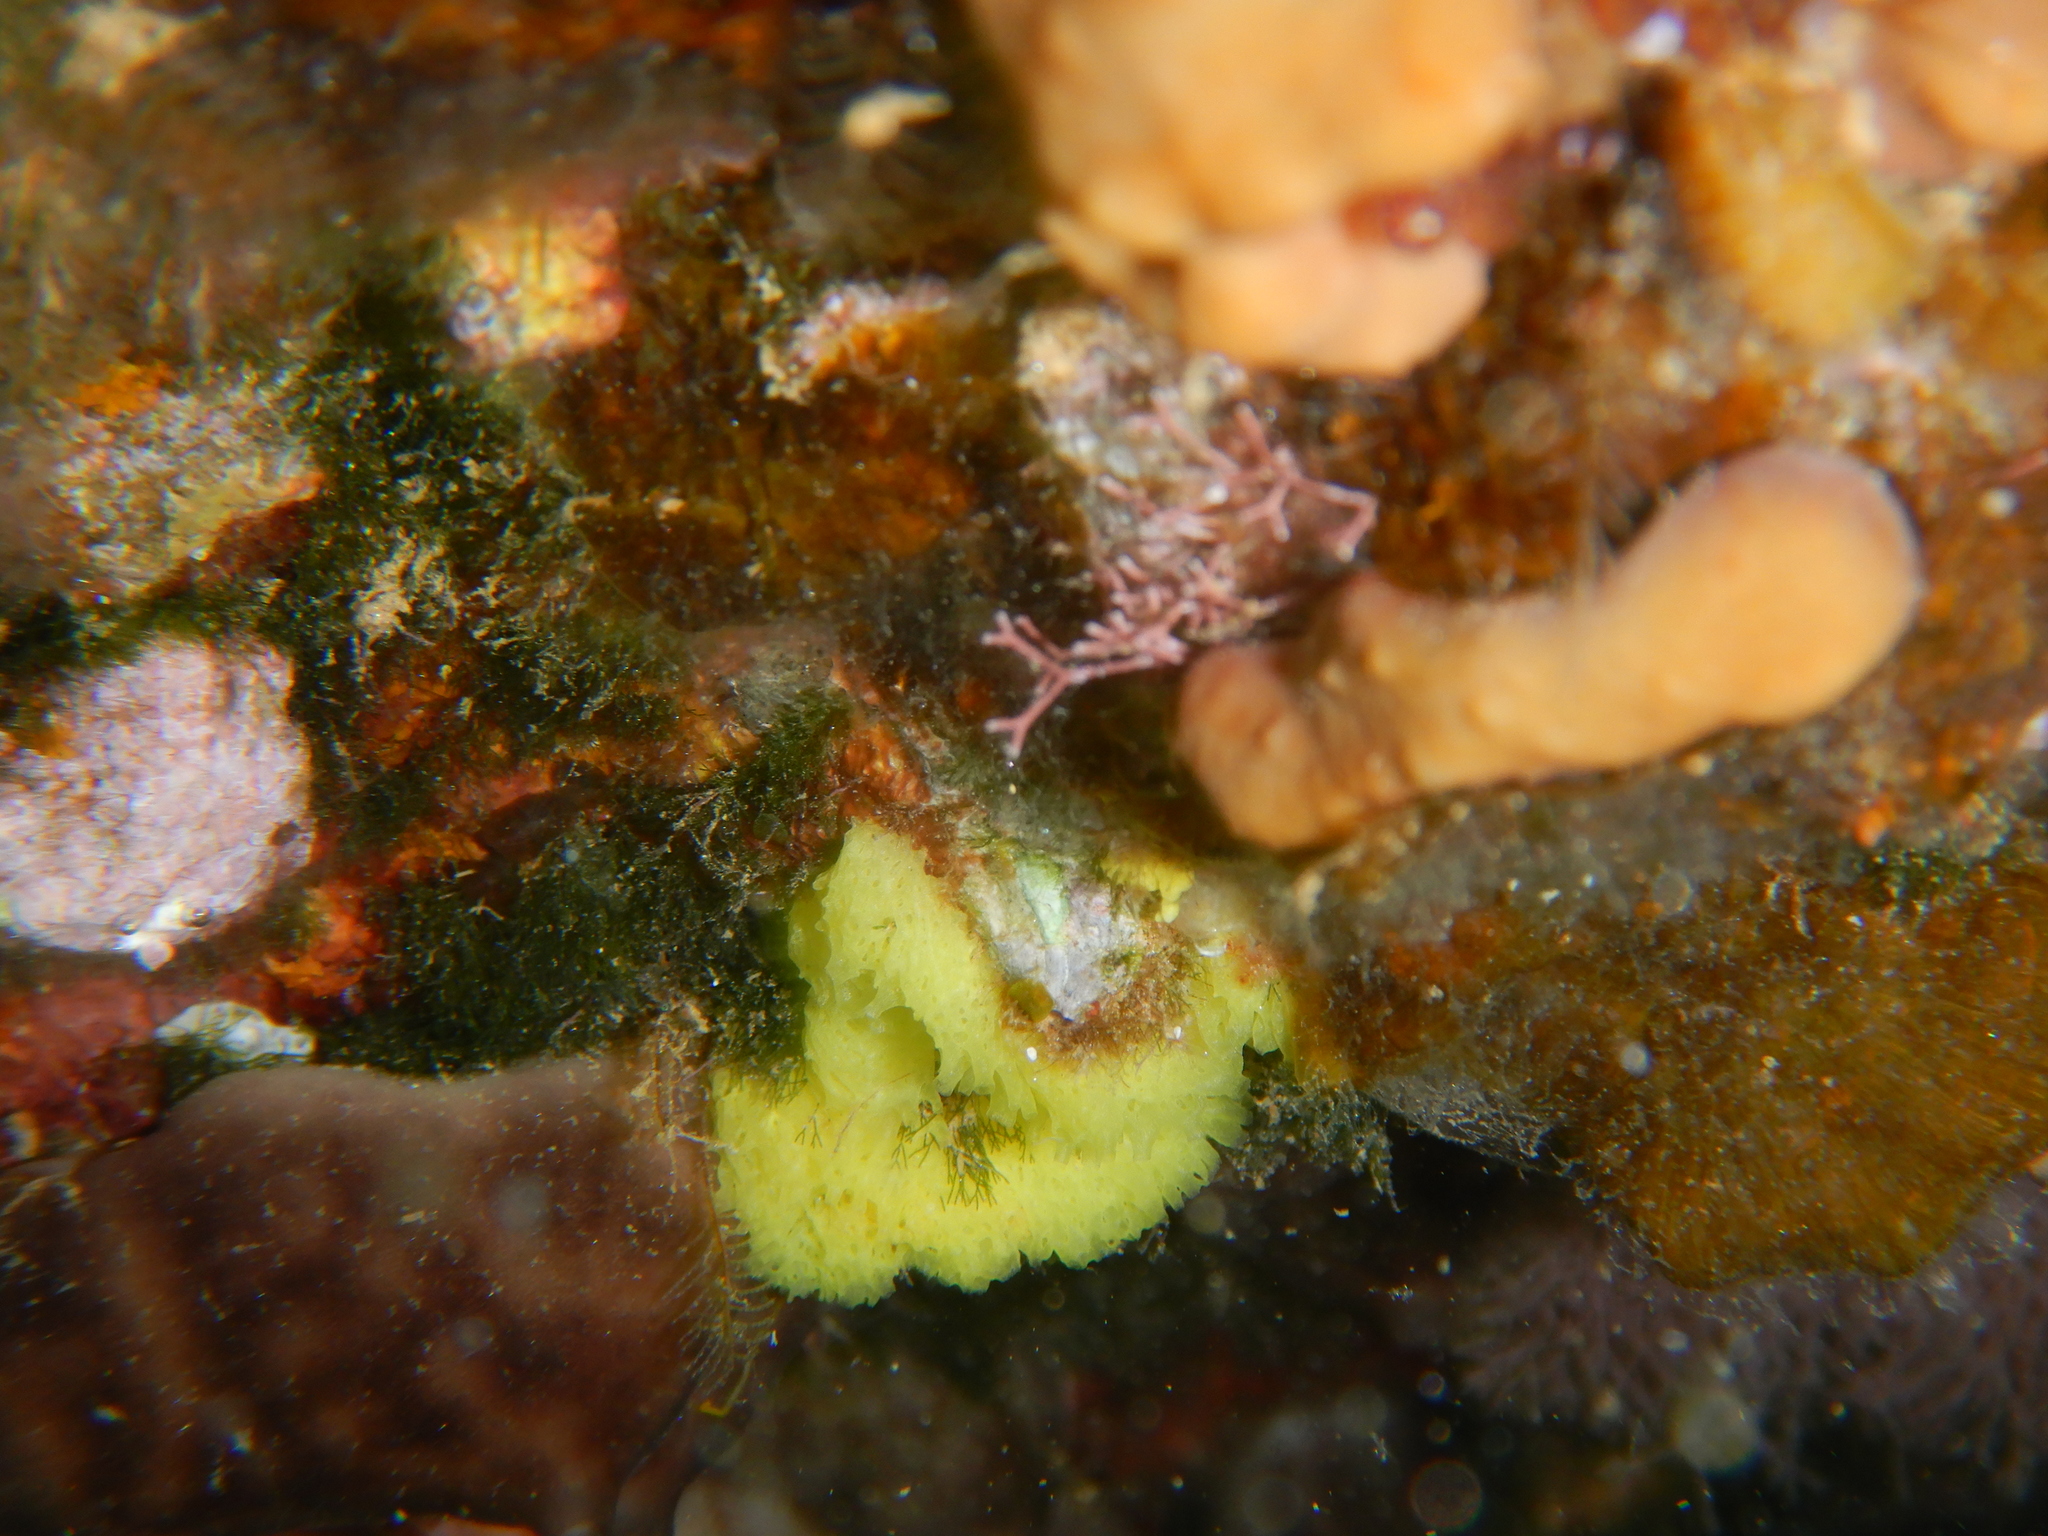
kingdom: Animalia
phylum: Porifera
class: Calcarea
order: Clathrinida
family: Clathrinidae
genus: Clathrina
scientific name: Clathrina clathrus
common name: Yellow clathrina
